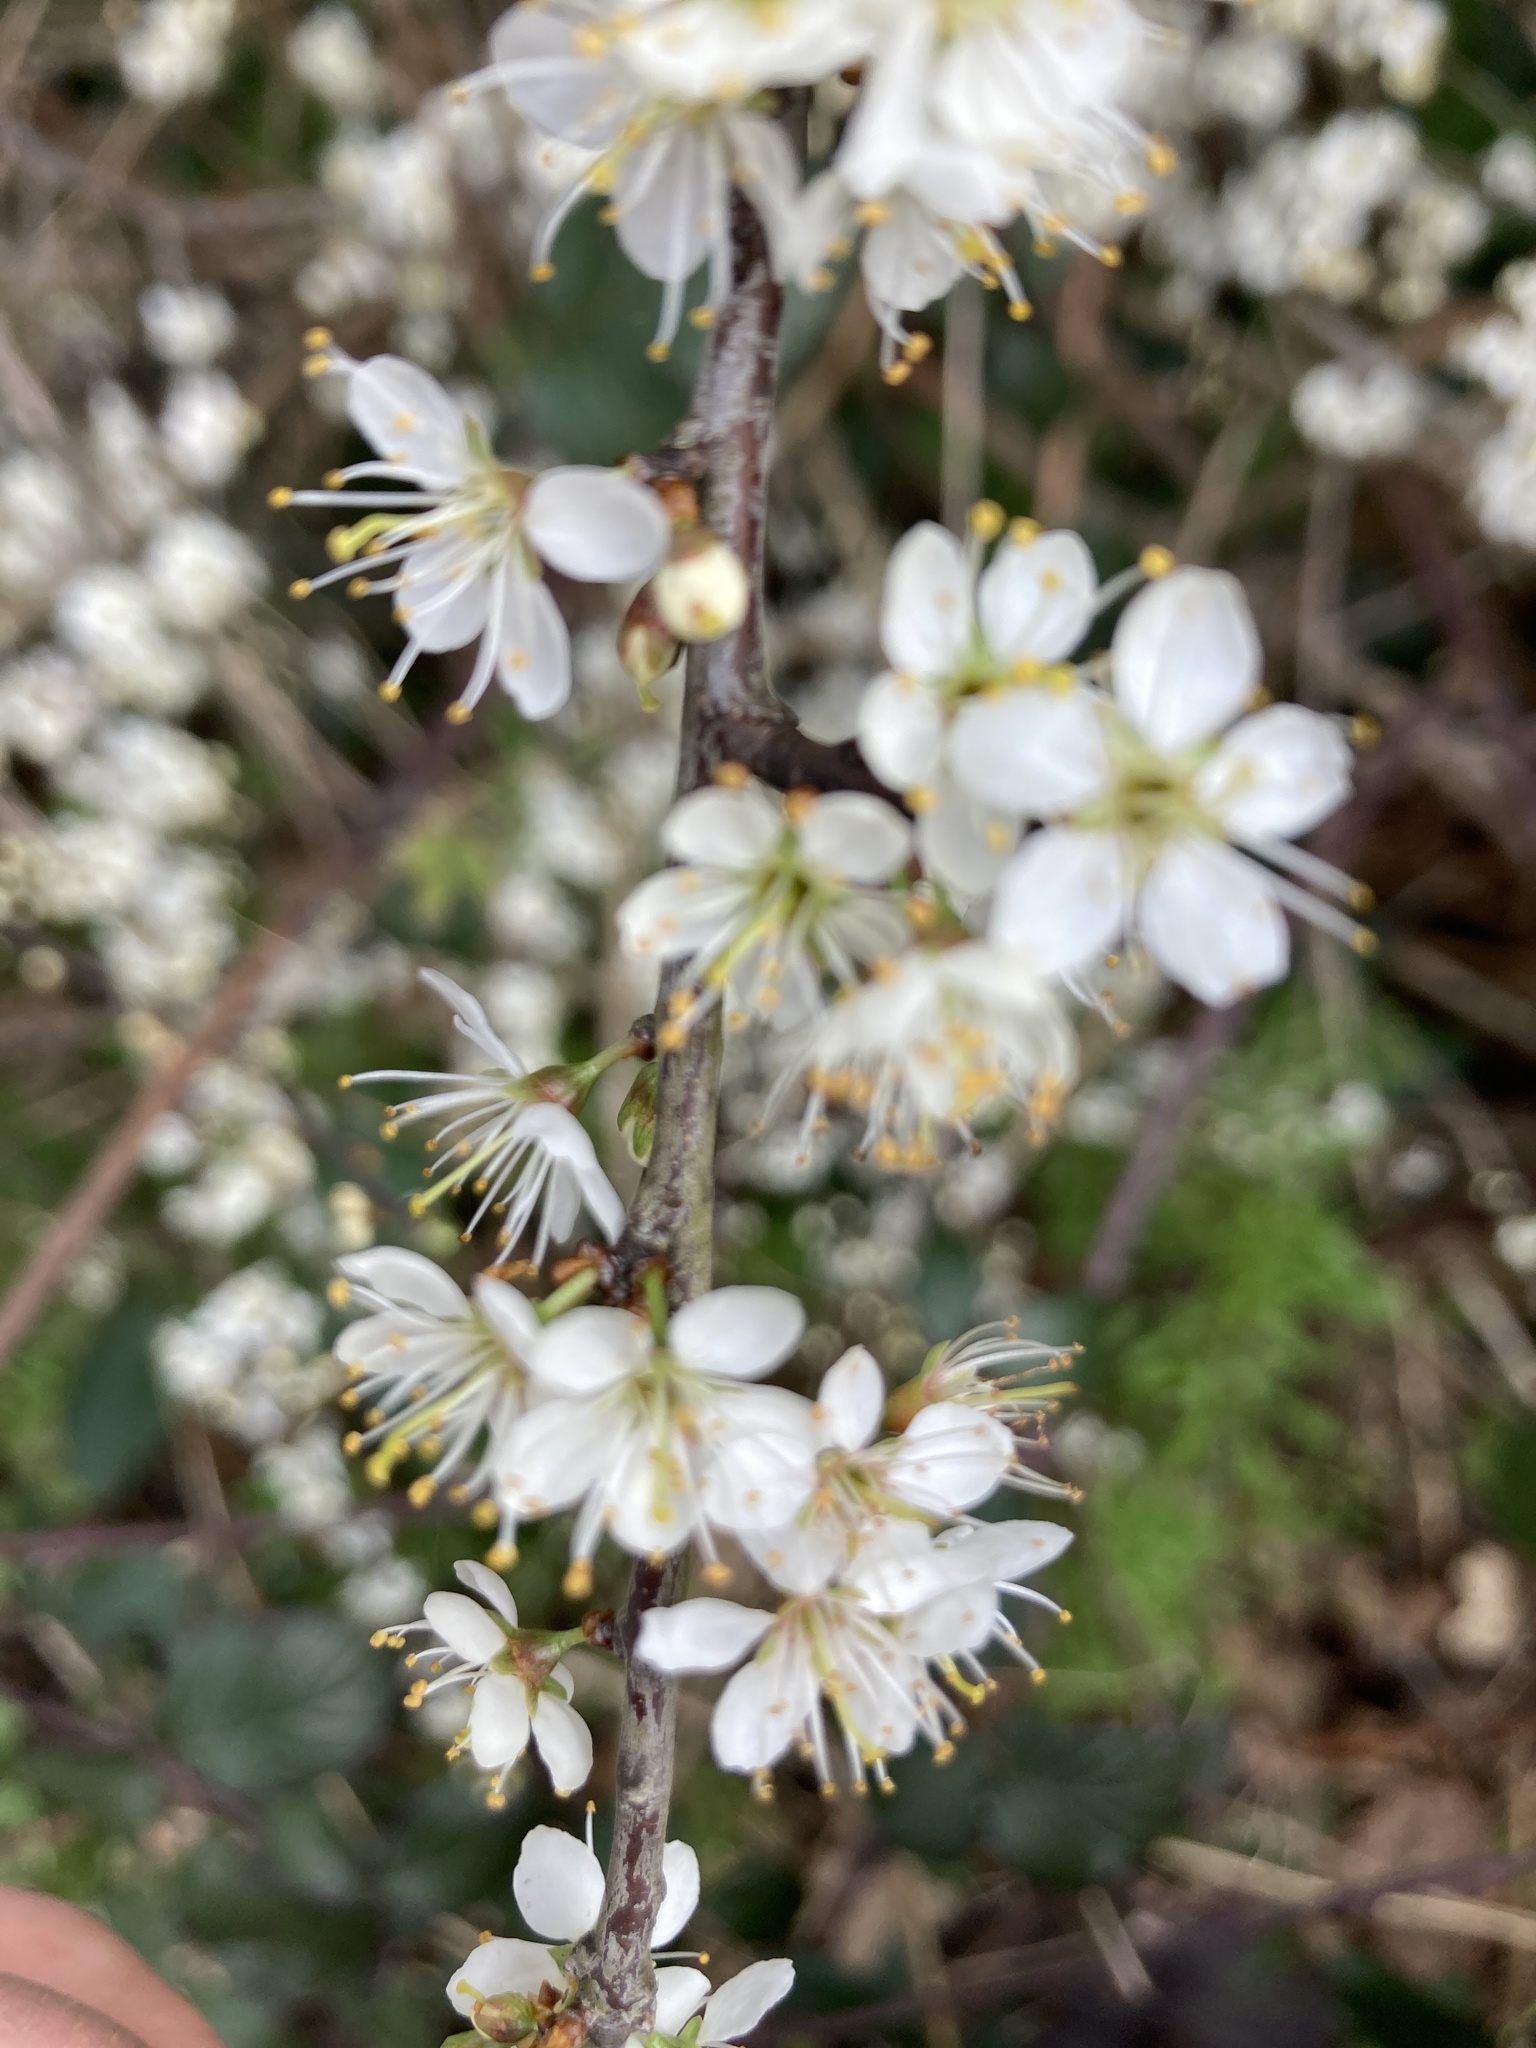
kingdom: Plantae
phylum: Tracheophyta
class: Magnoliopsida
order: Rosales
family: Rosaceae
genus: Prunus
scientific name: Prunus spinosa
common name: Blackthorn
